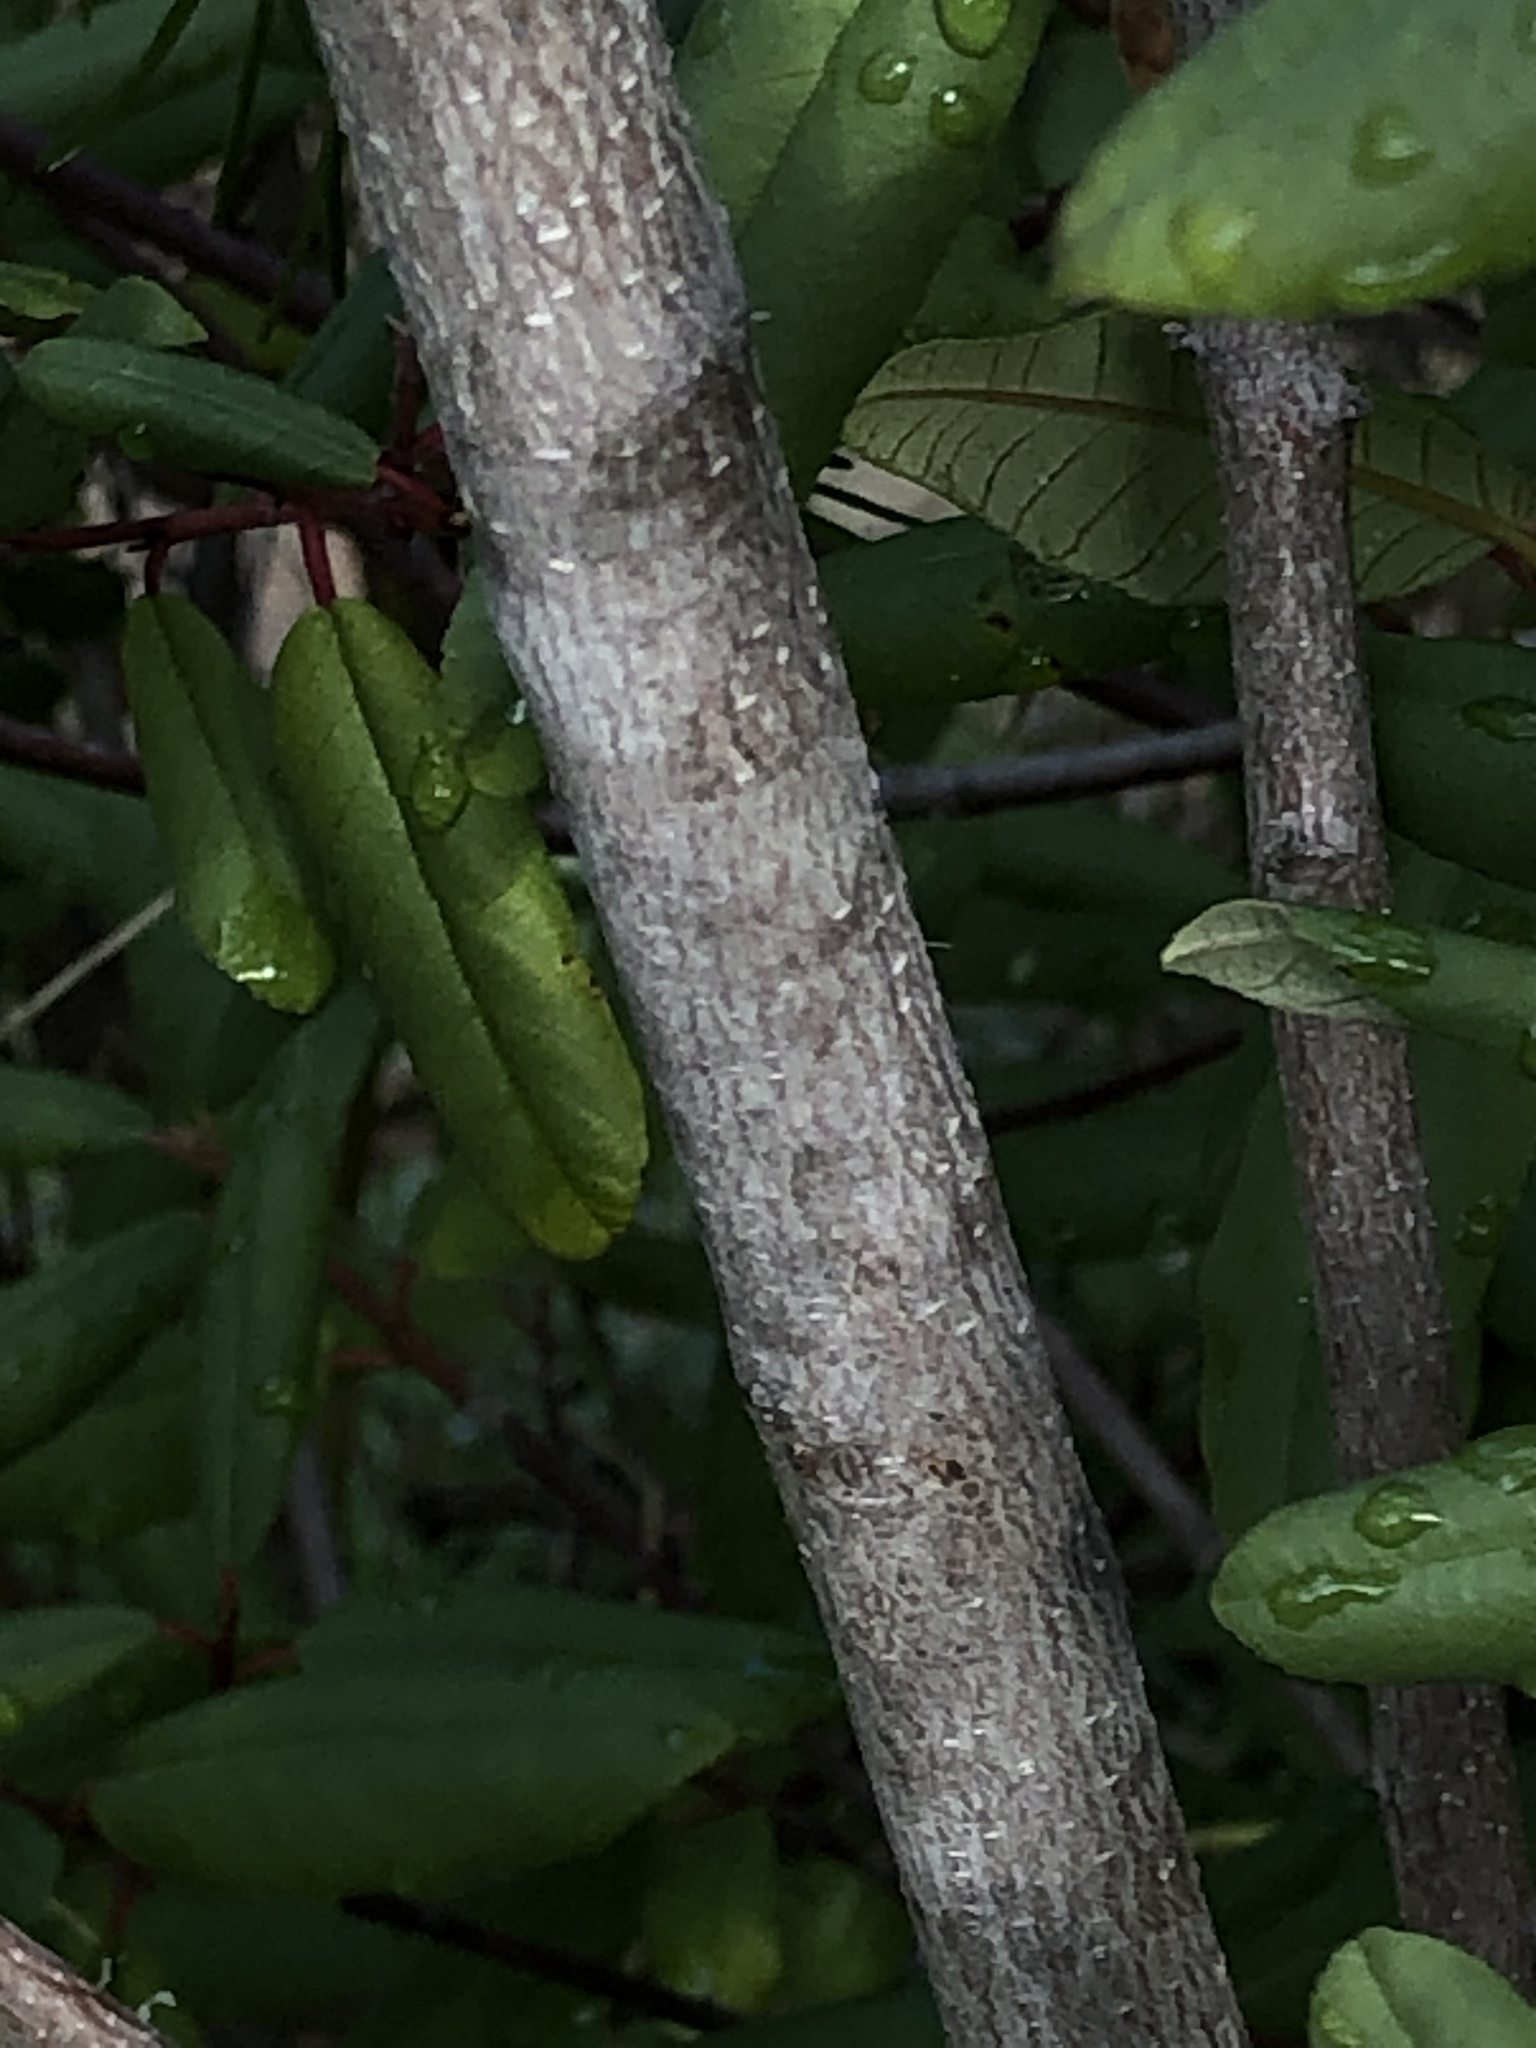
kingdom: Plantae
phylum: Tracheophyta
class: Magnoliopsida
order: Rosales
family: Rhamnaceae
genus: Frangula
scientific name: Frangula californica
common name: California buckthorn
